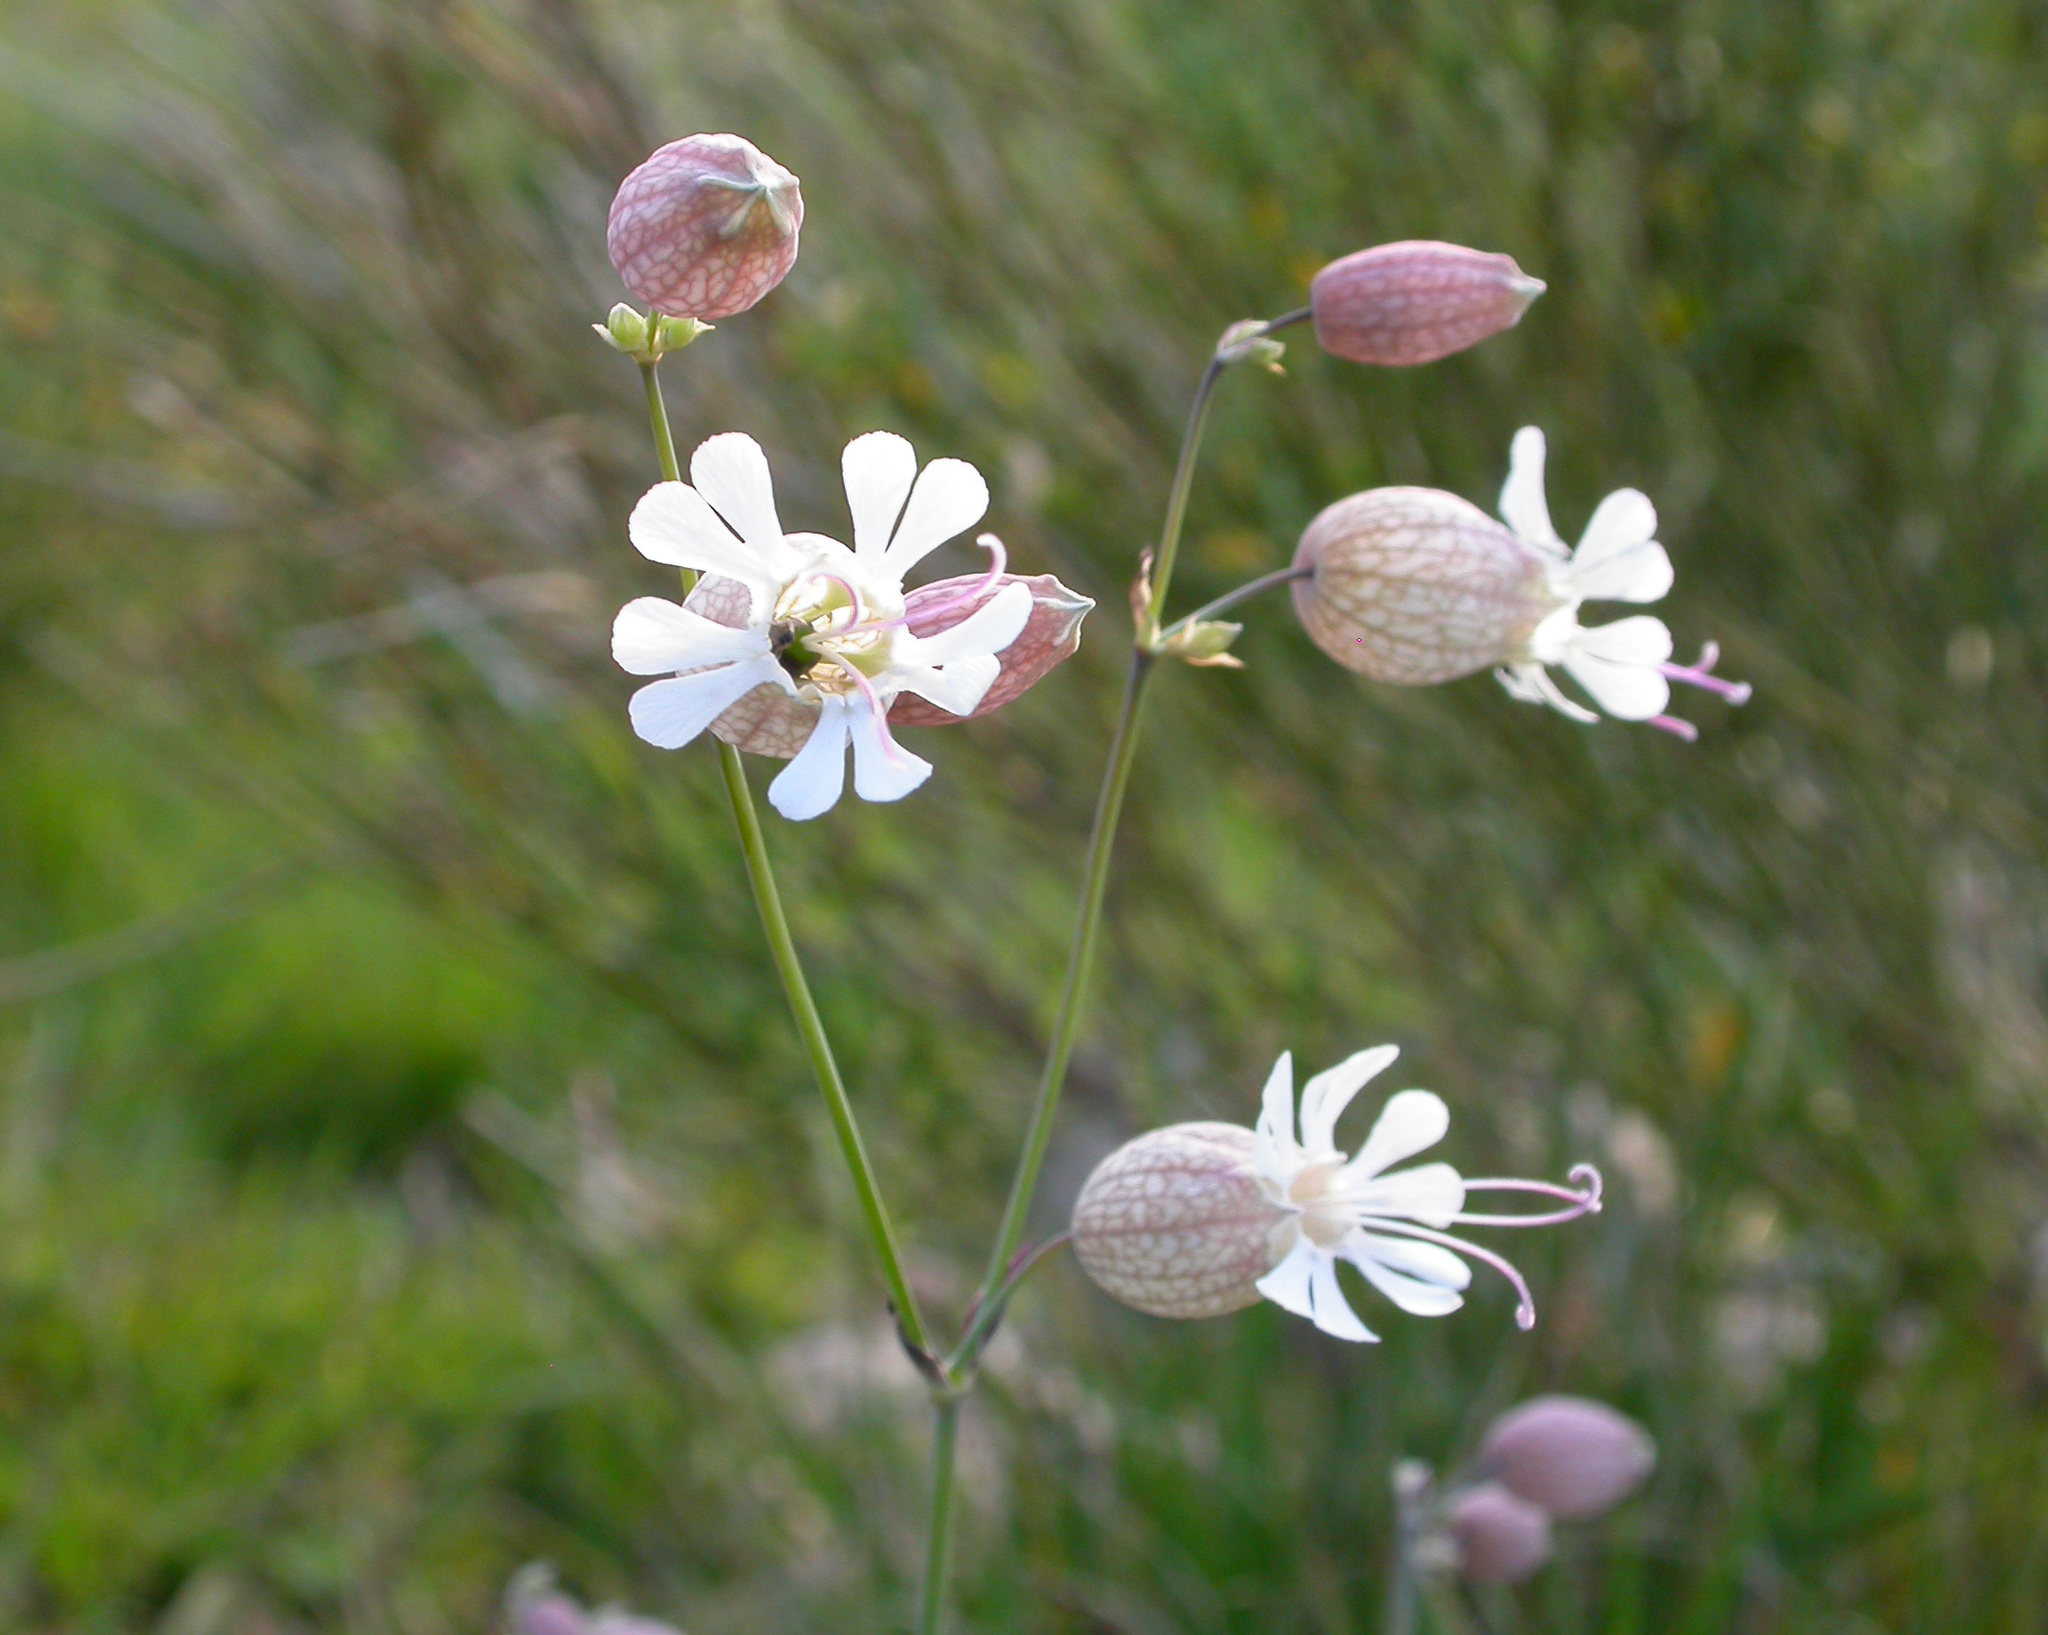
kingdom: Plantae
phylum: Tracheophyta
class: Magnoliopsida
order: Caryophyllales
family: Caryophyllaceae
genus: Silene
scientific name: Silene vulgaris
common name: Bladder campion
